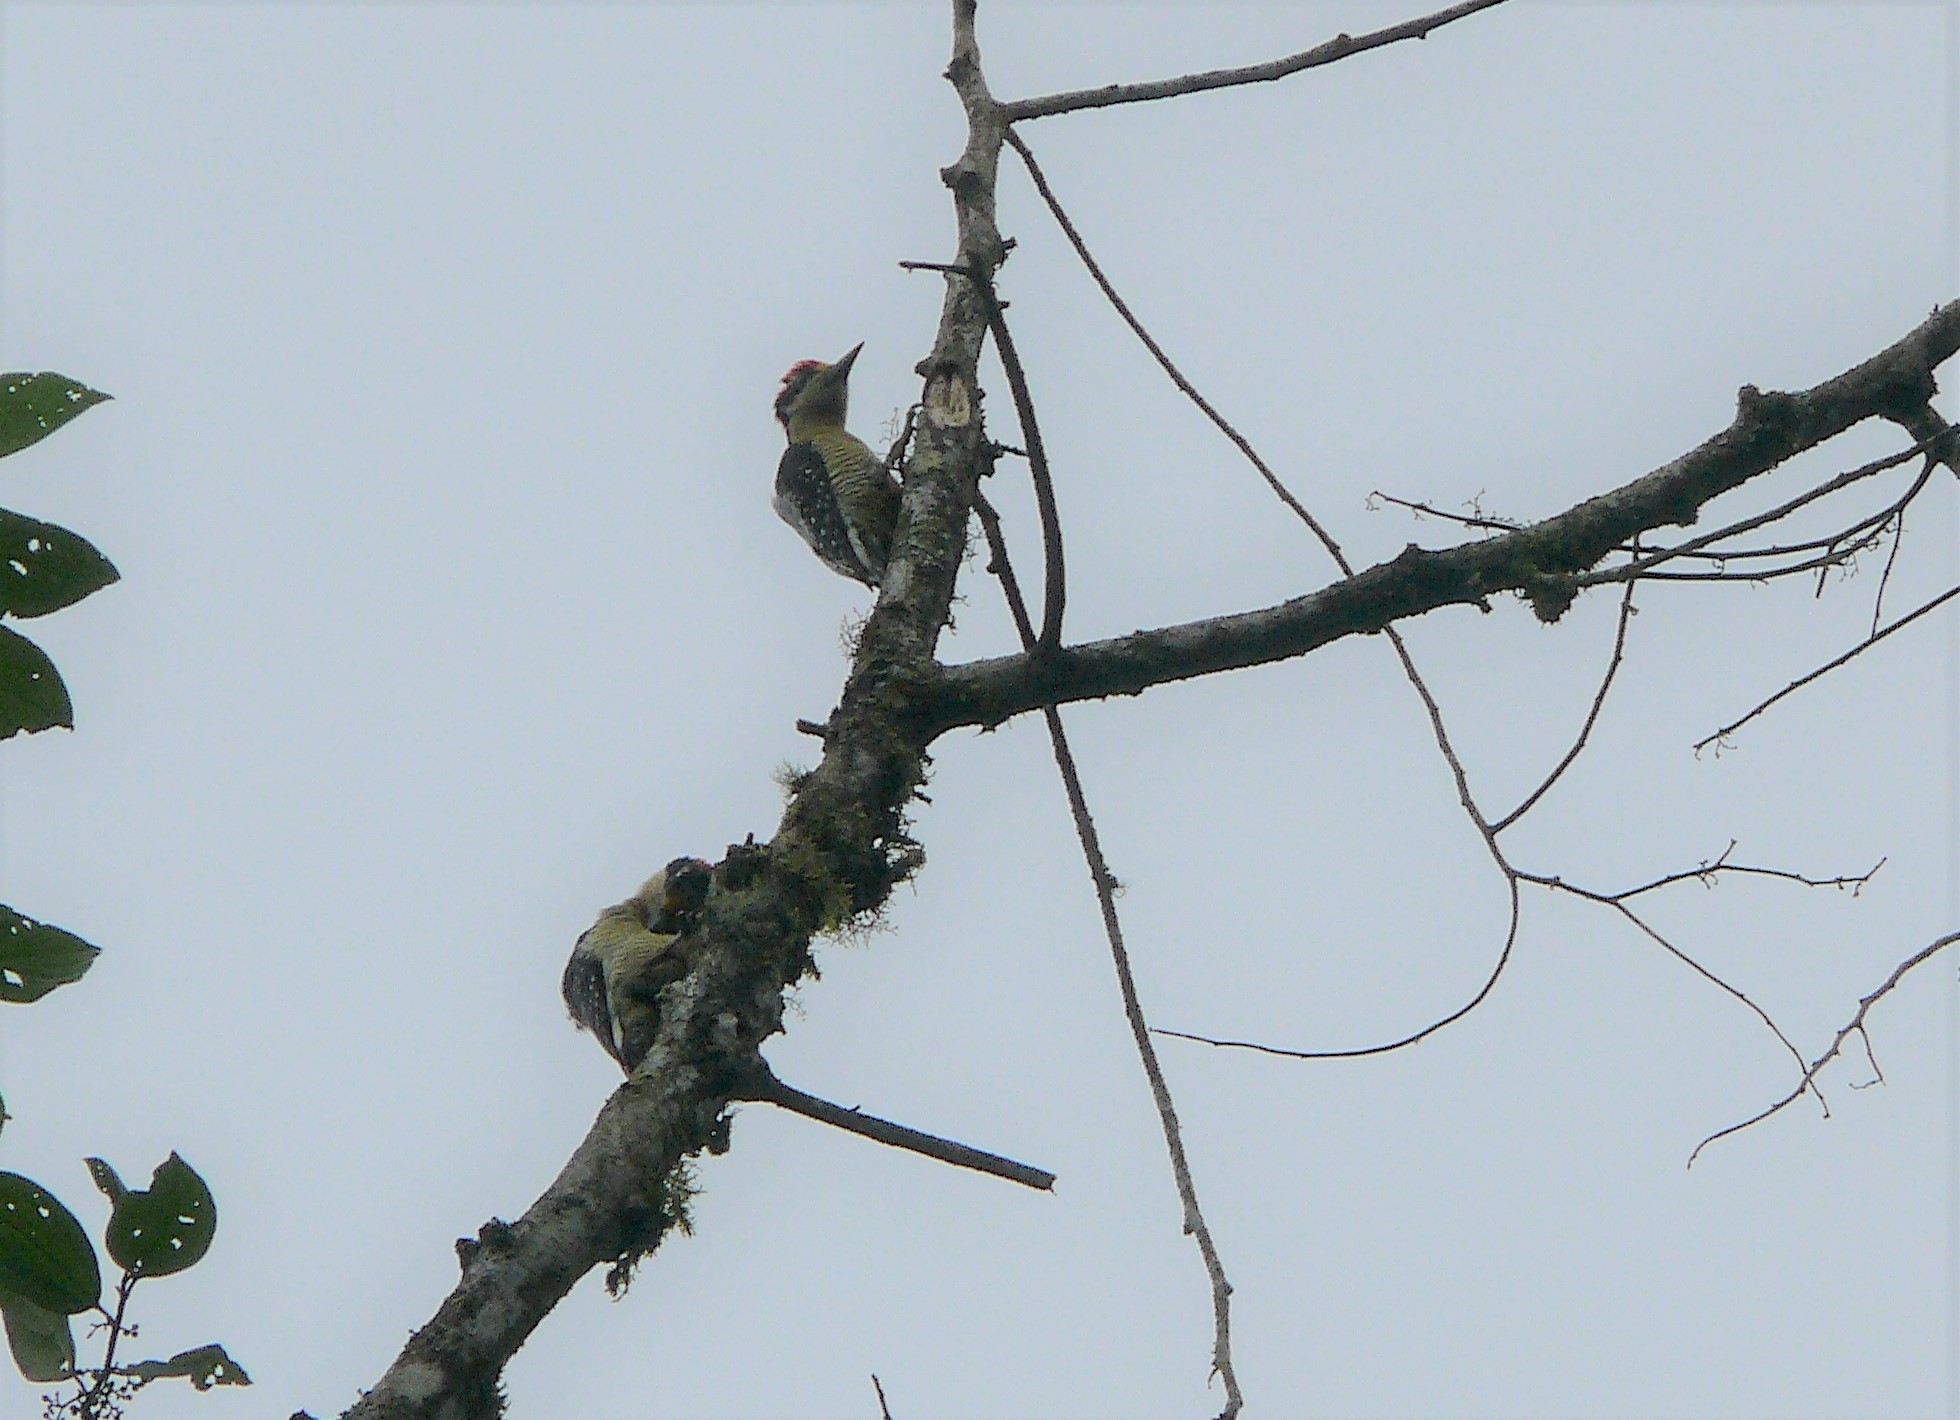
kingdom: Animalia
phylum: Chordata
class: Aves
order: Piciformes
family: Picidae
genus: Melanerpes
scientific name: Melanerpes pucherani
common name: Black-cheeked woodpecker
